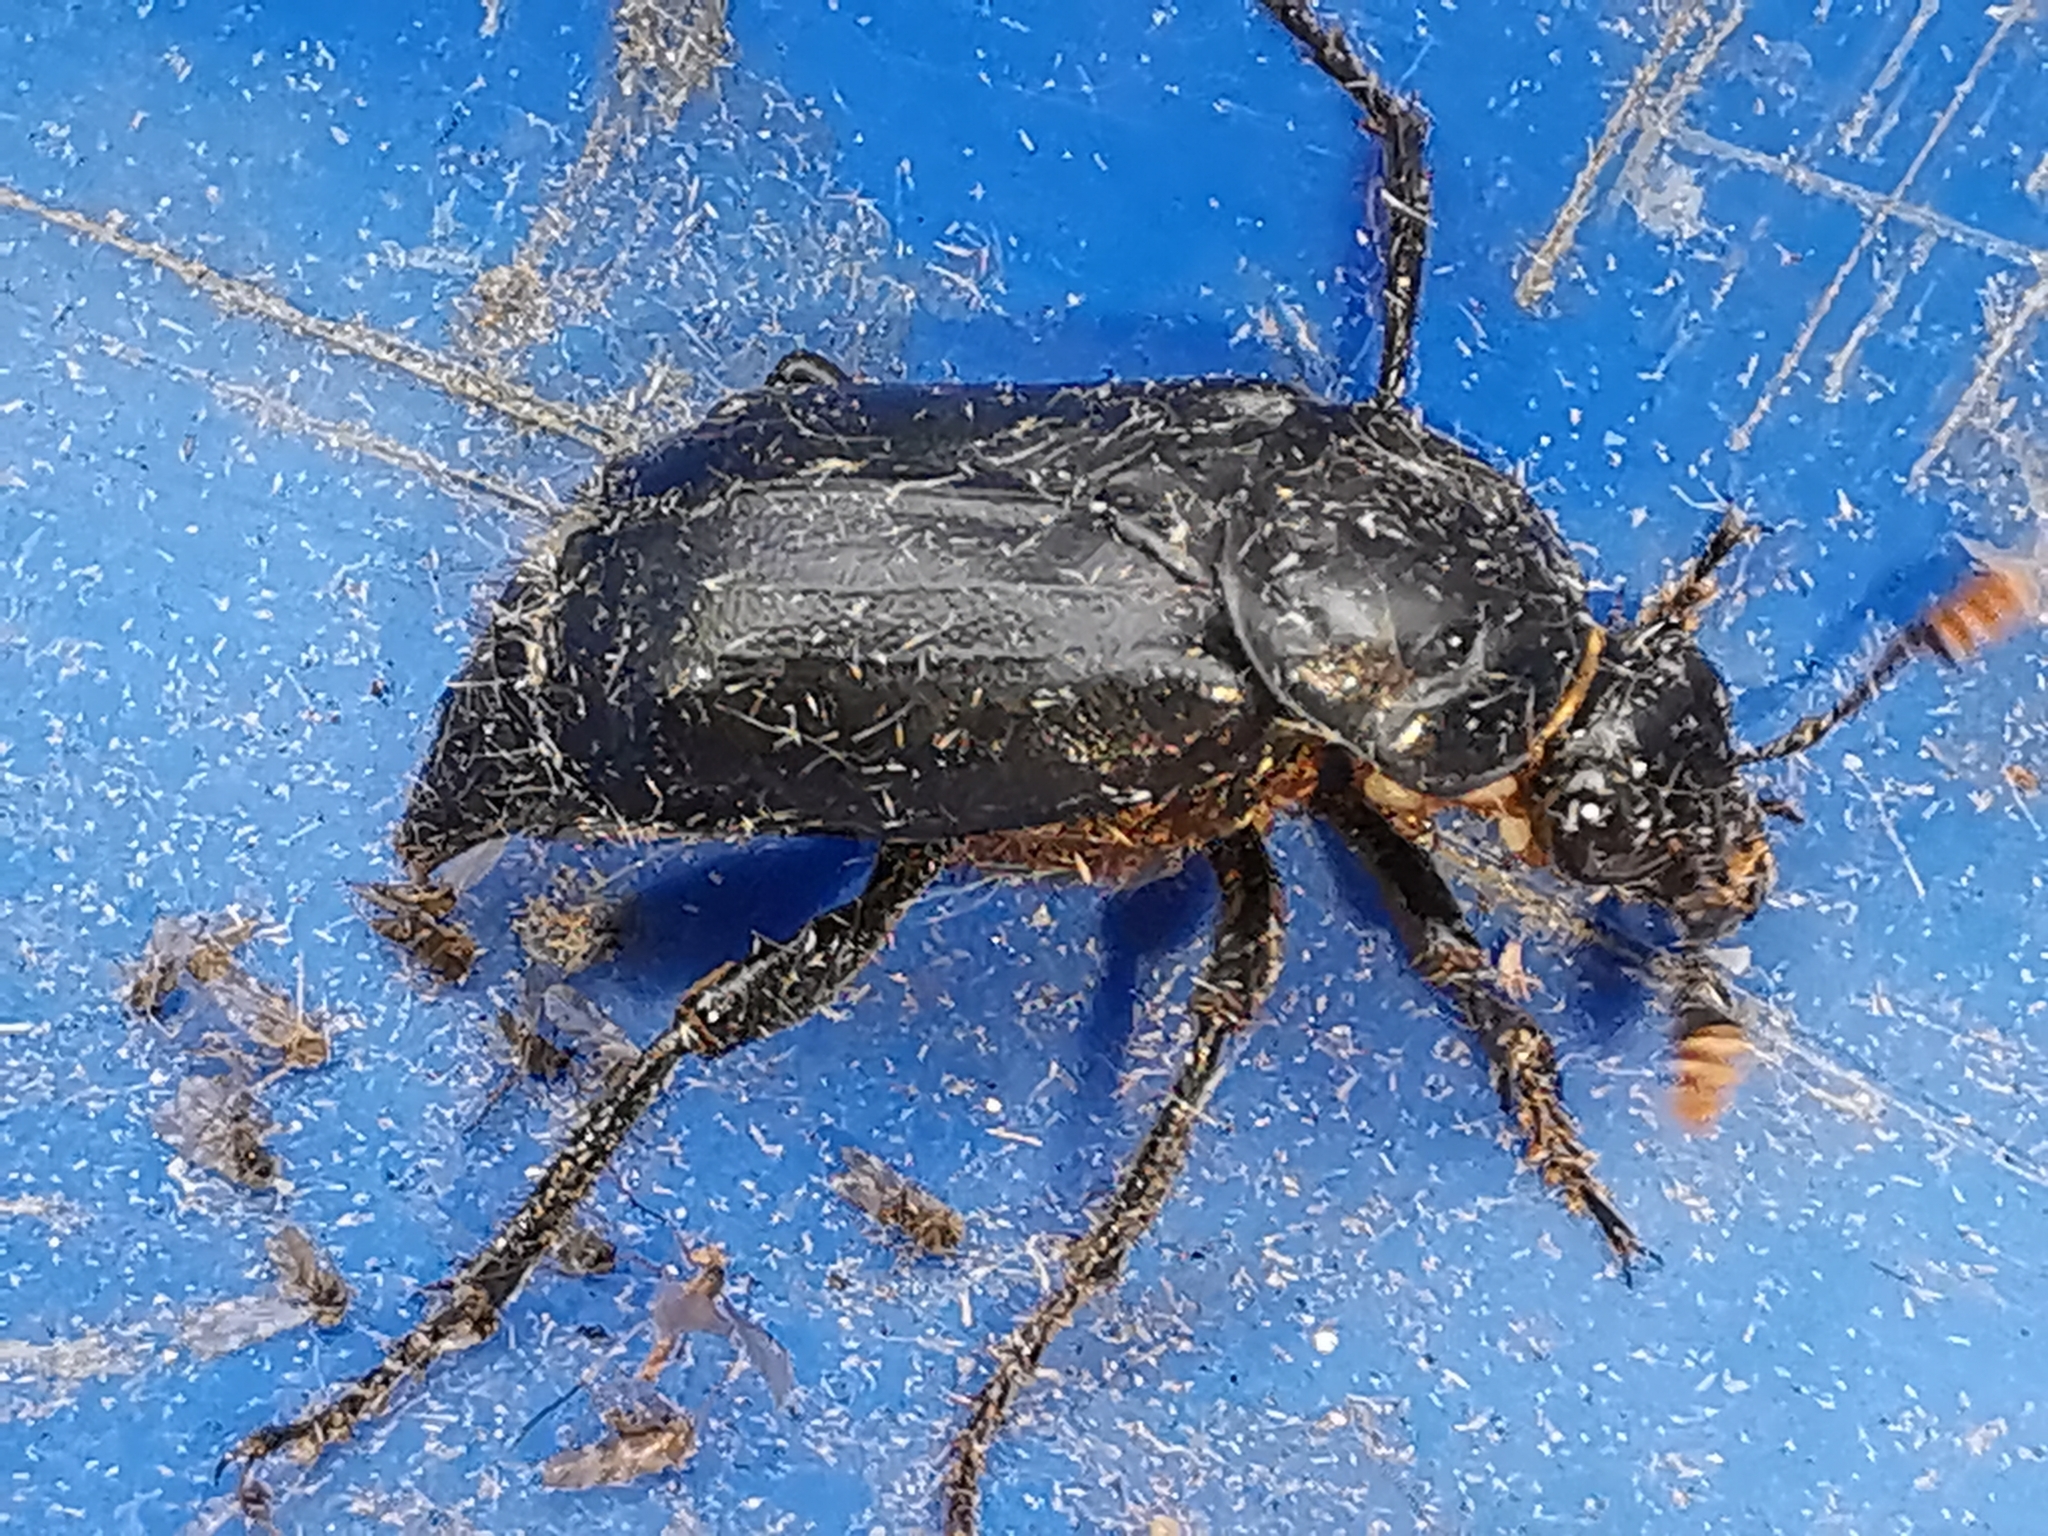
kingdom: Animalia
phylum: Arthropoda
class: Insecta
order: Coleoptera
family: Staphylinidae
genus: Nicrophorus
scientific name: Nicrophorus humator
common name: Black sexton beetle
